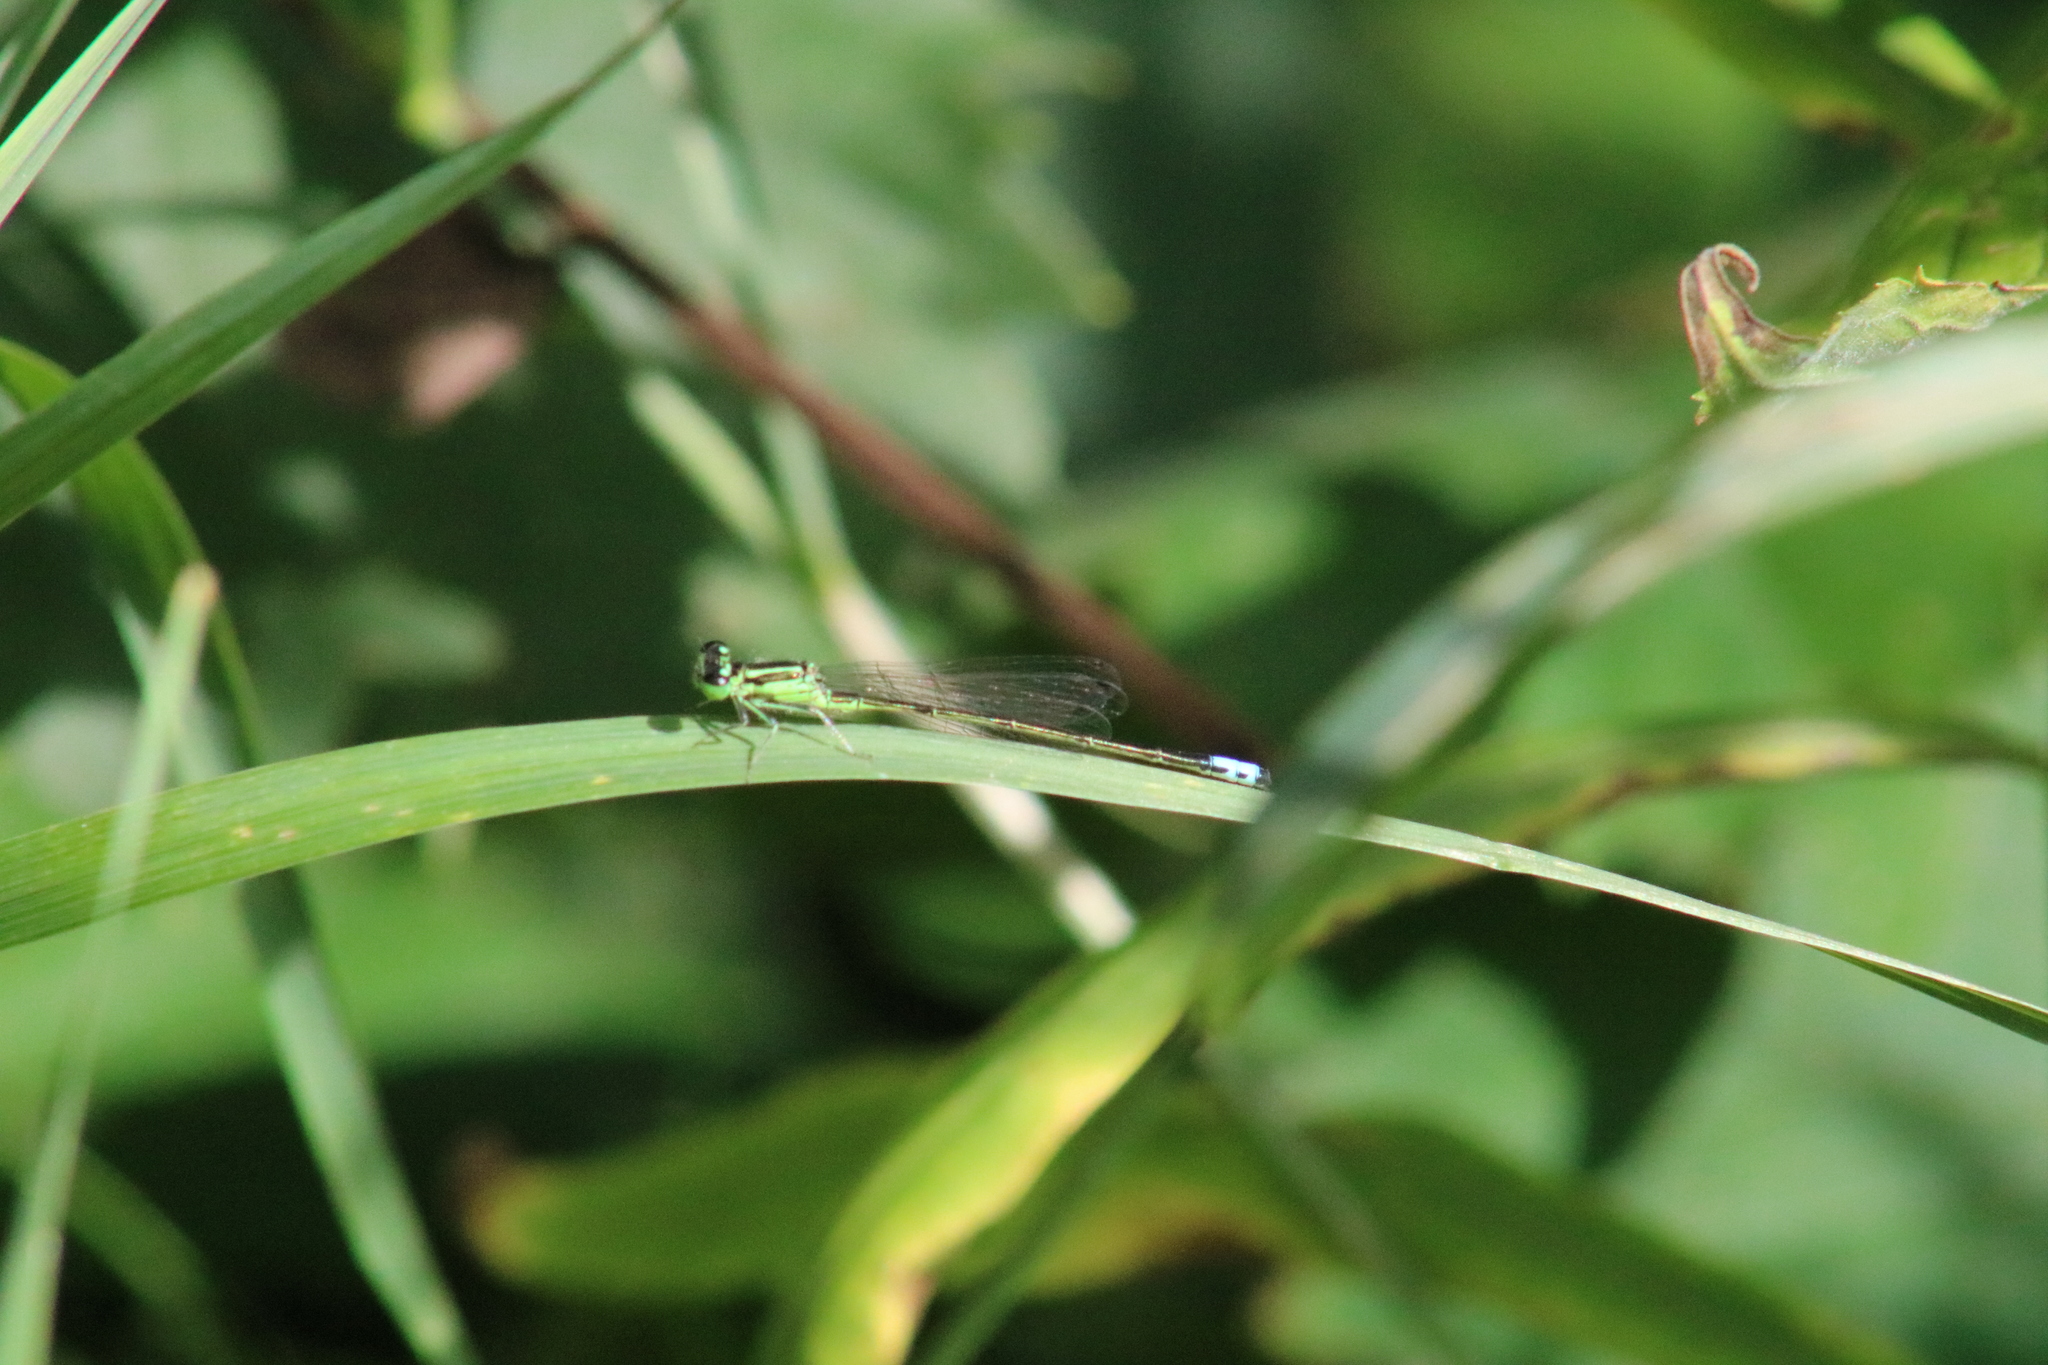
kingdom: Animalia
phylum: Arthropoda
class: Insecta
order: Odonata
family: Coenagrionidae
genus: Ischnura
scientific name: Ischnura verticalis
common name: Eastern forktail
